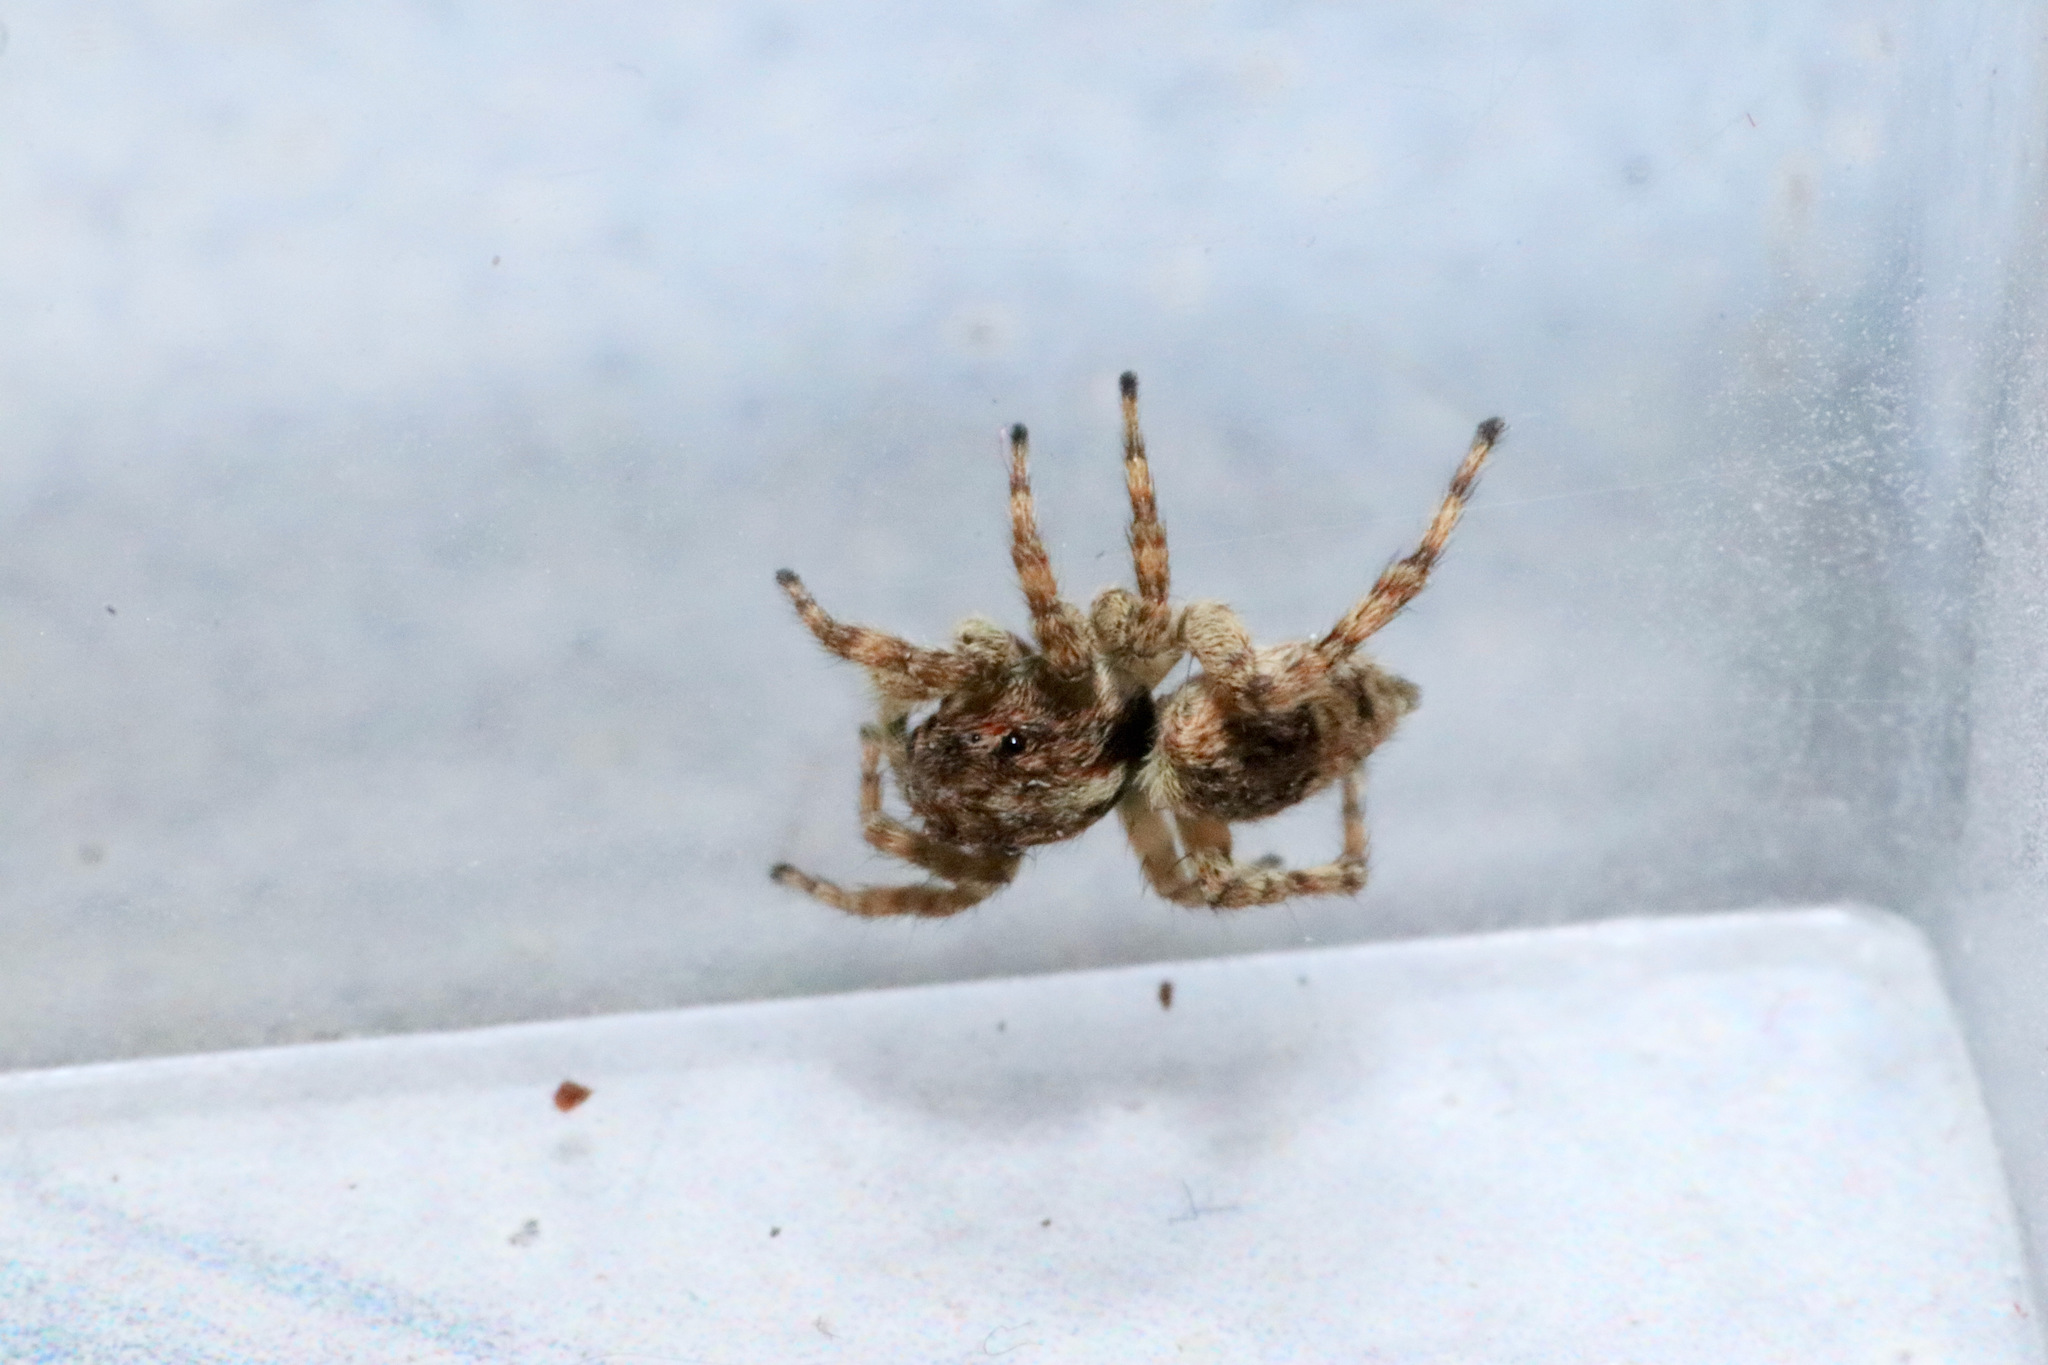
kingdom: Animalia
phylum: Arthropoda
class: Arachnida
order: Araneae
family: Salticidae
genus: Attulus
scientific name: Attulus fasciger
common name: Asiatic wall jumping spider
